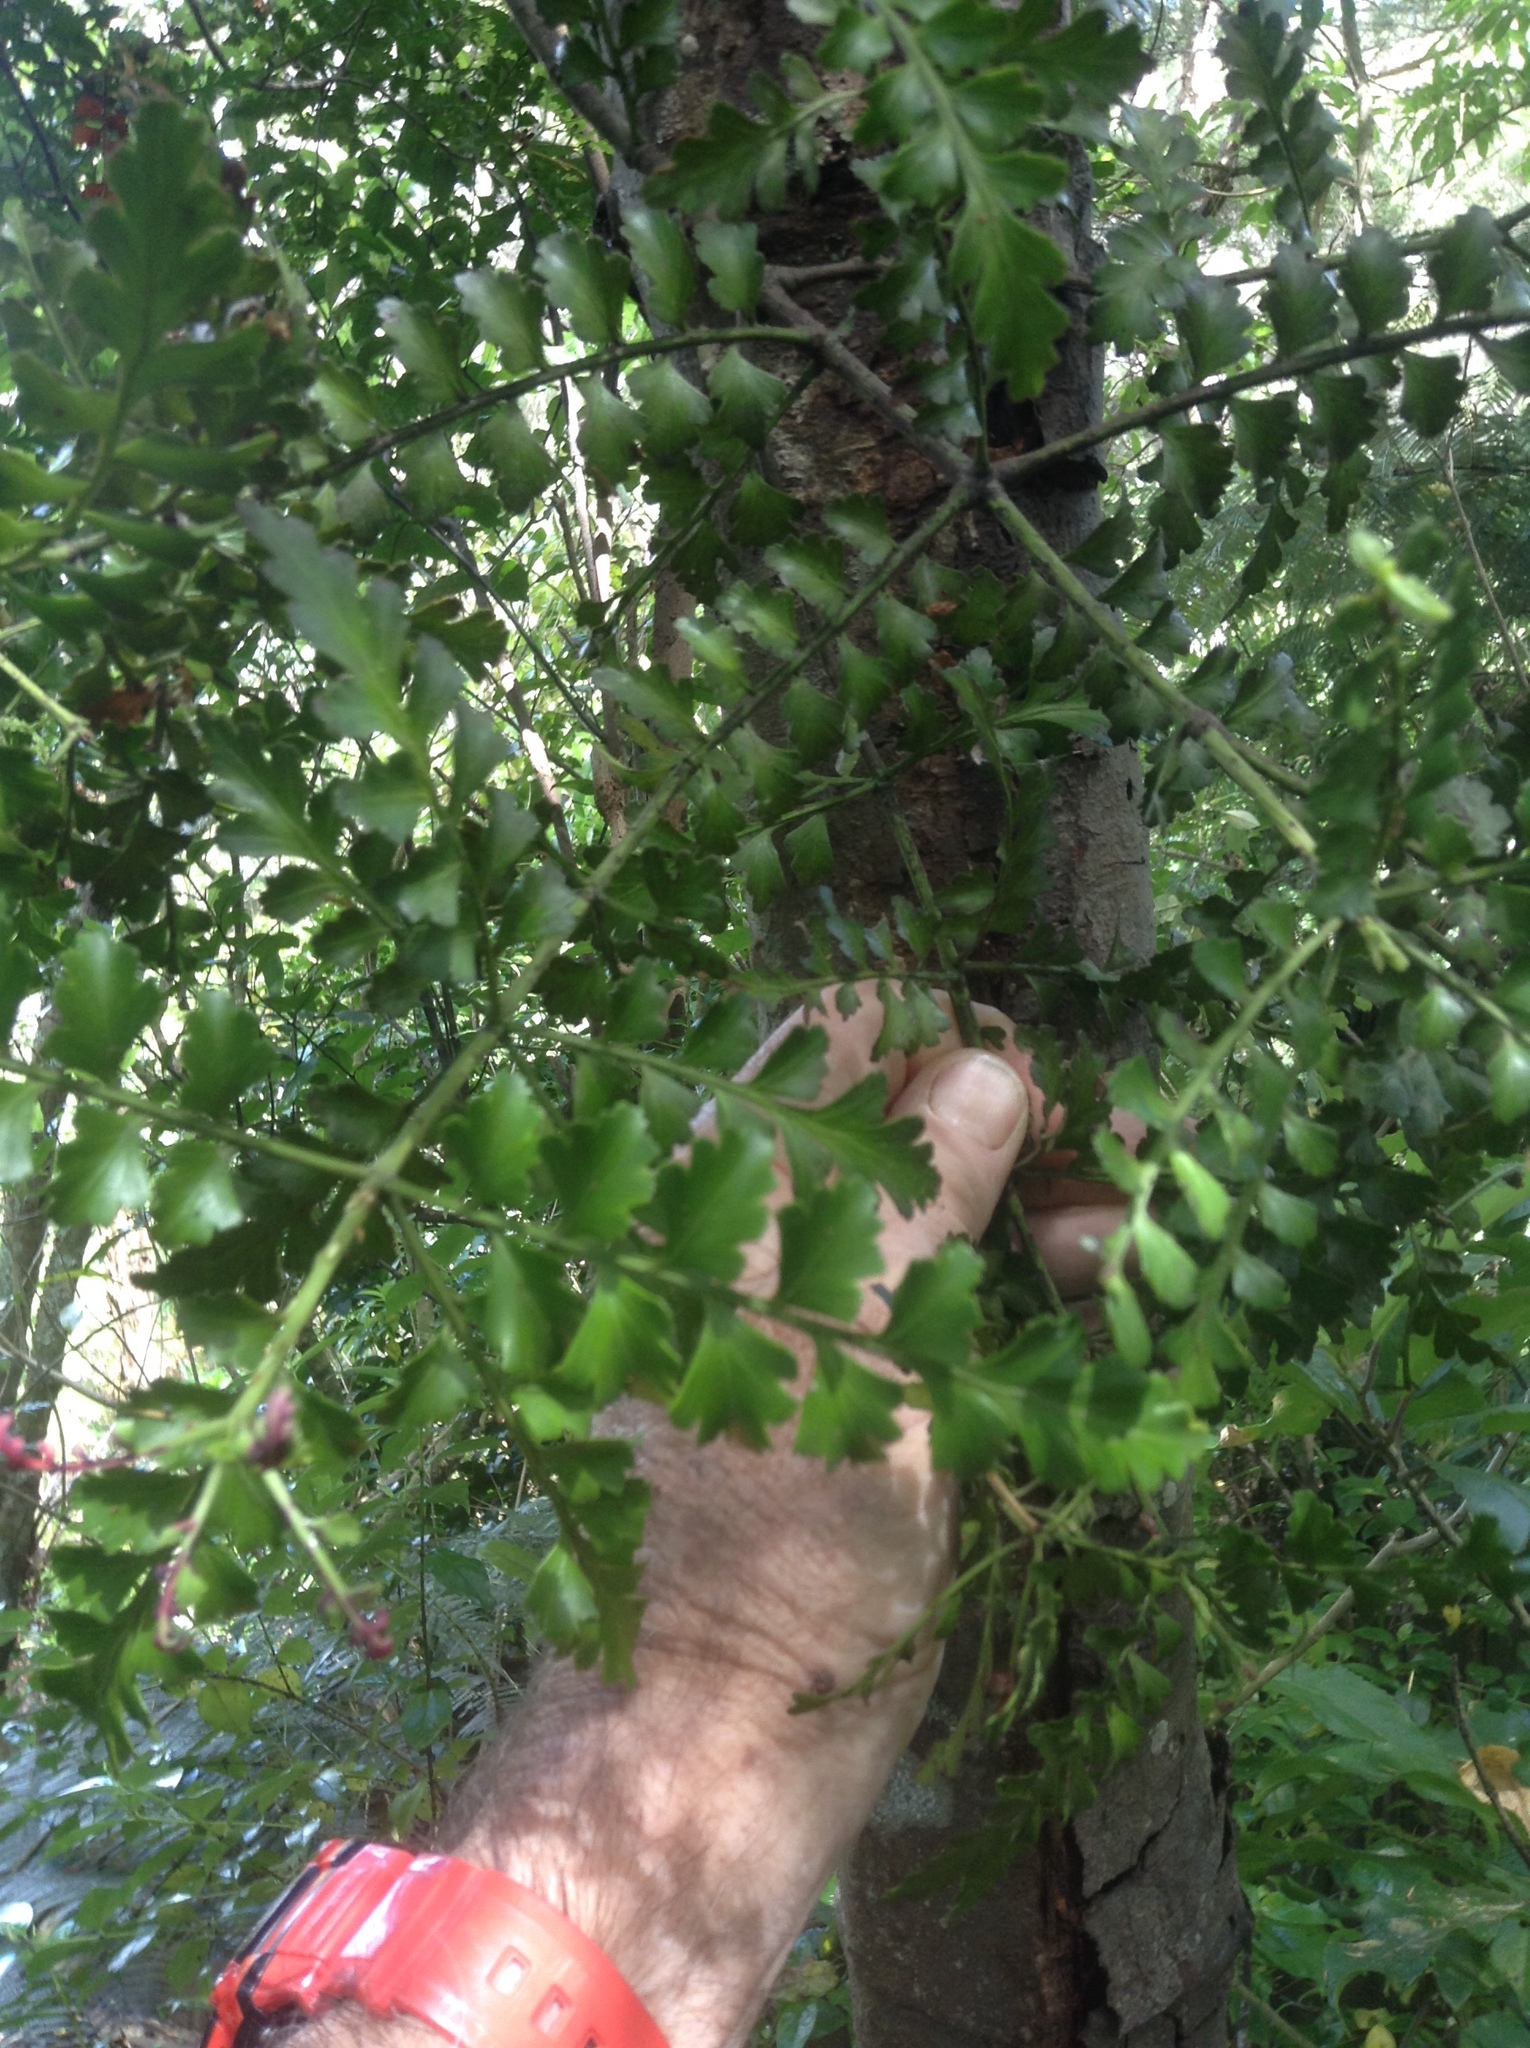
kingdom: Plantae
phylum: Tracheophyta
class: Pinopsida
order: Pinales
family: Phyllocladaceae
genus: Phyllocladus
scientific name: Phyllocladus trichomanoides
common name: Celery pine
